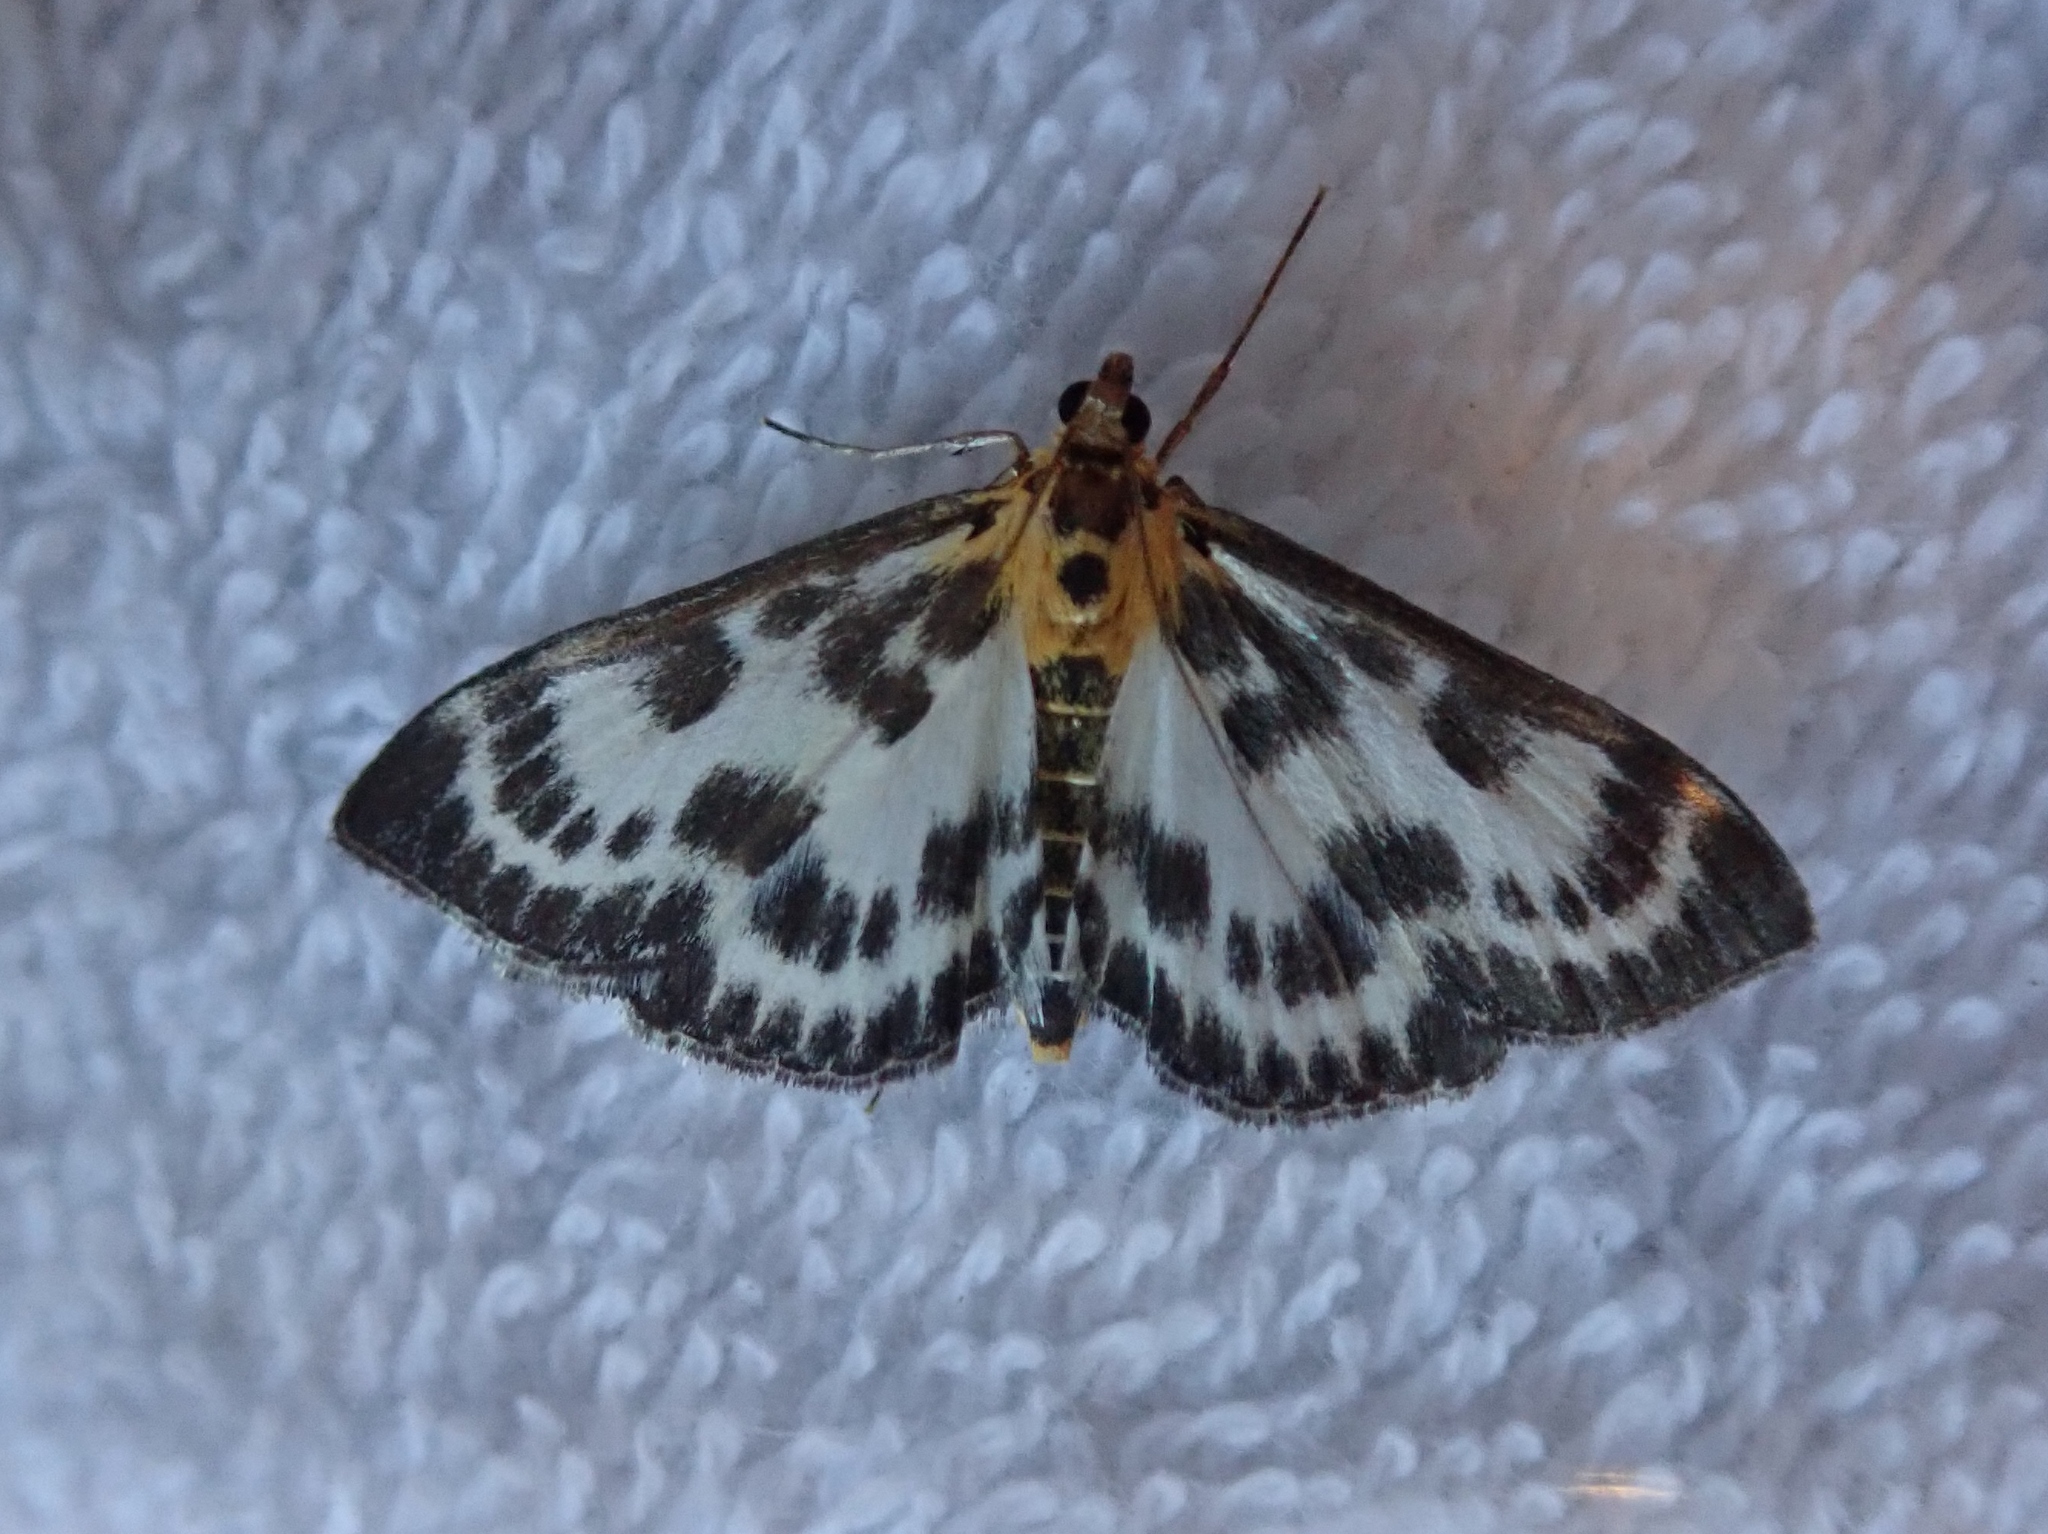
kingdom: Animalia
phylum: Arthropoda
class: Insecta
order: Lepidoptera
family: Crambidae
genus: Anania
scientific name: Anania hortulata
